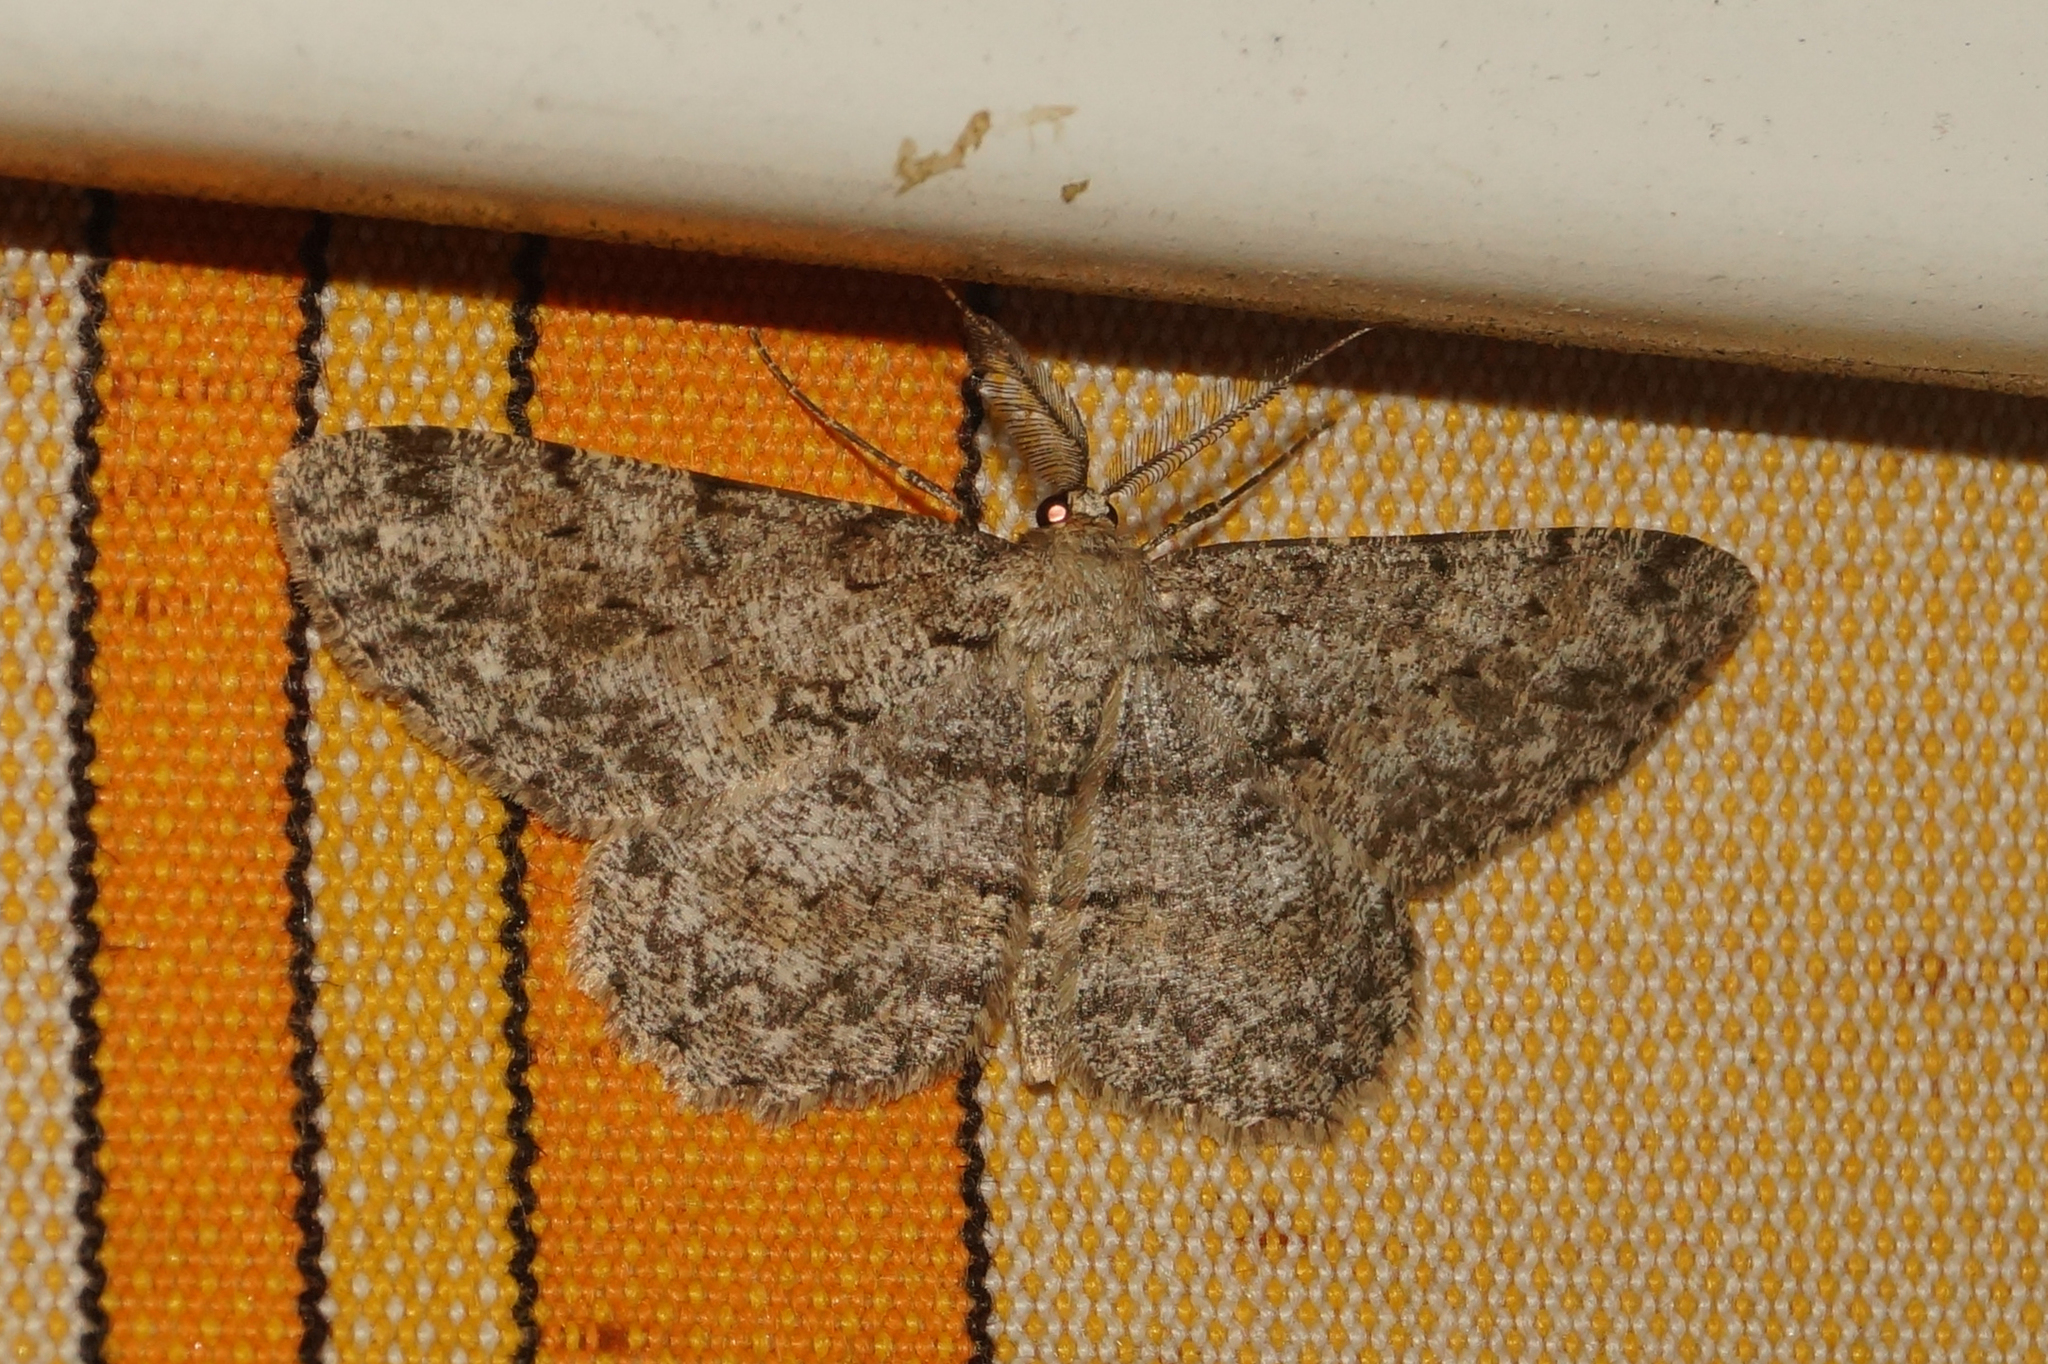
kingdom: Animalia
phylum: Arthropoda
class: Insecta
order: Lepidoptera
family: Geometridae
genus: Hypomecis
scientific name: Hypomecis punctinalis
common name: Pale oak beauty
